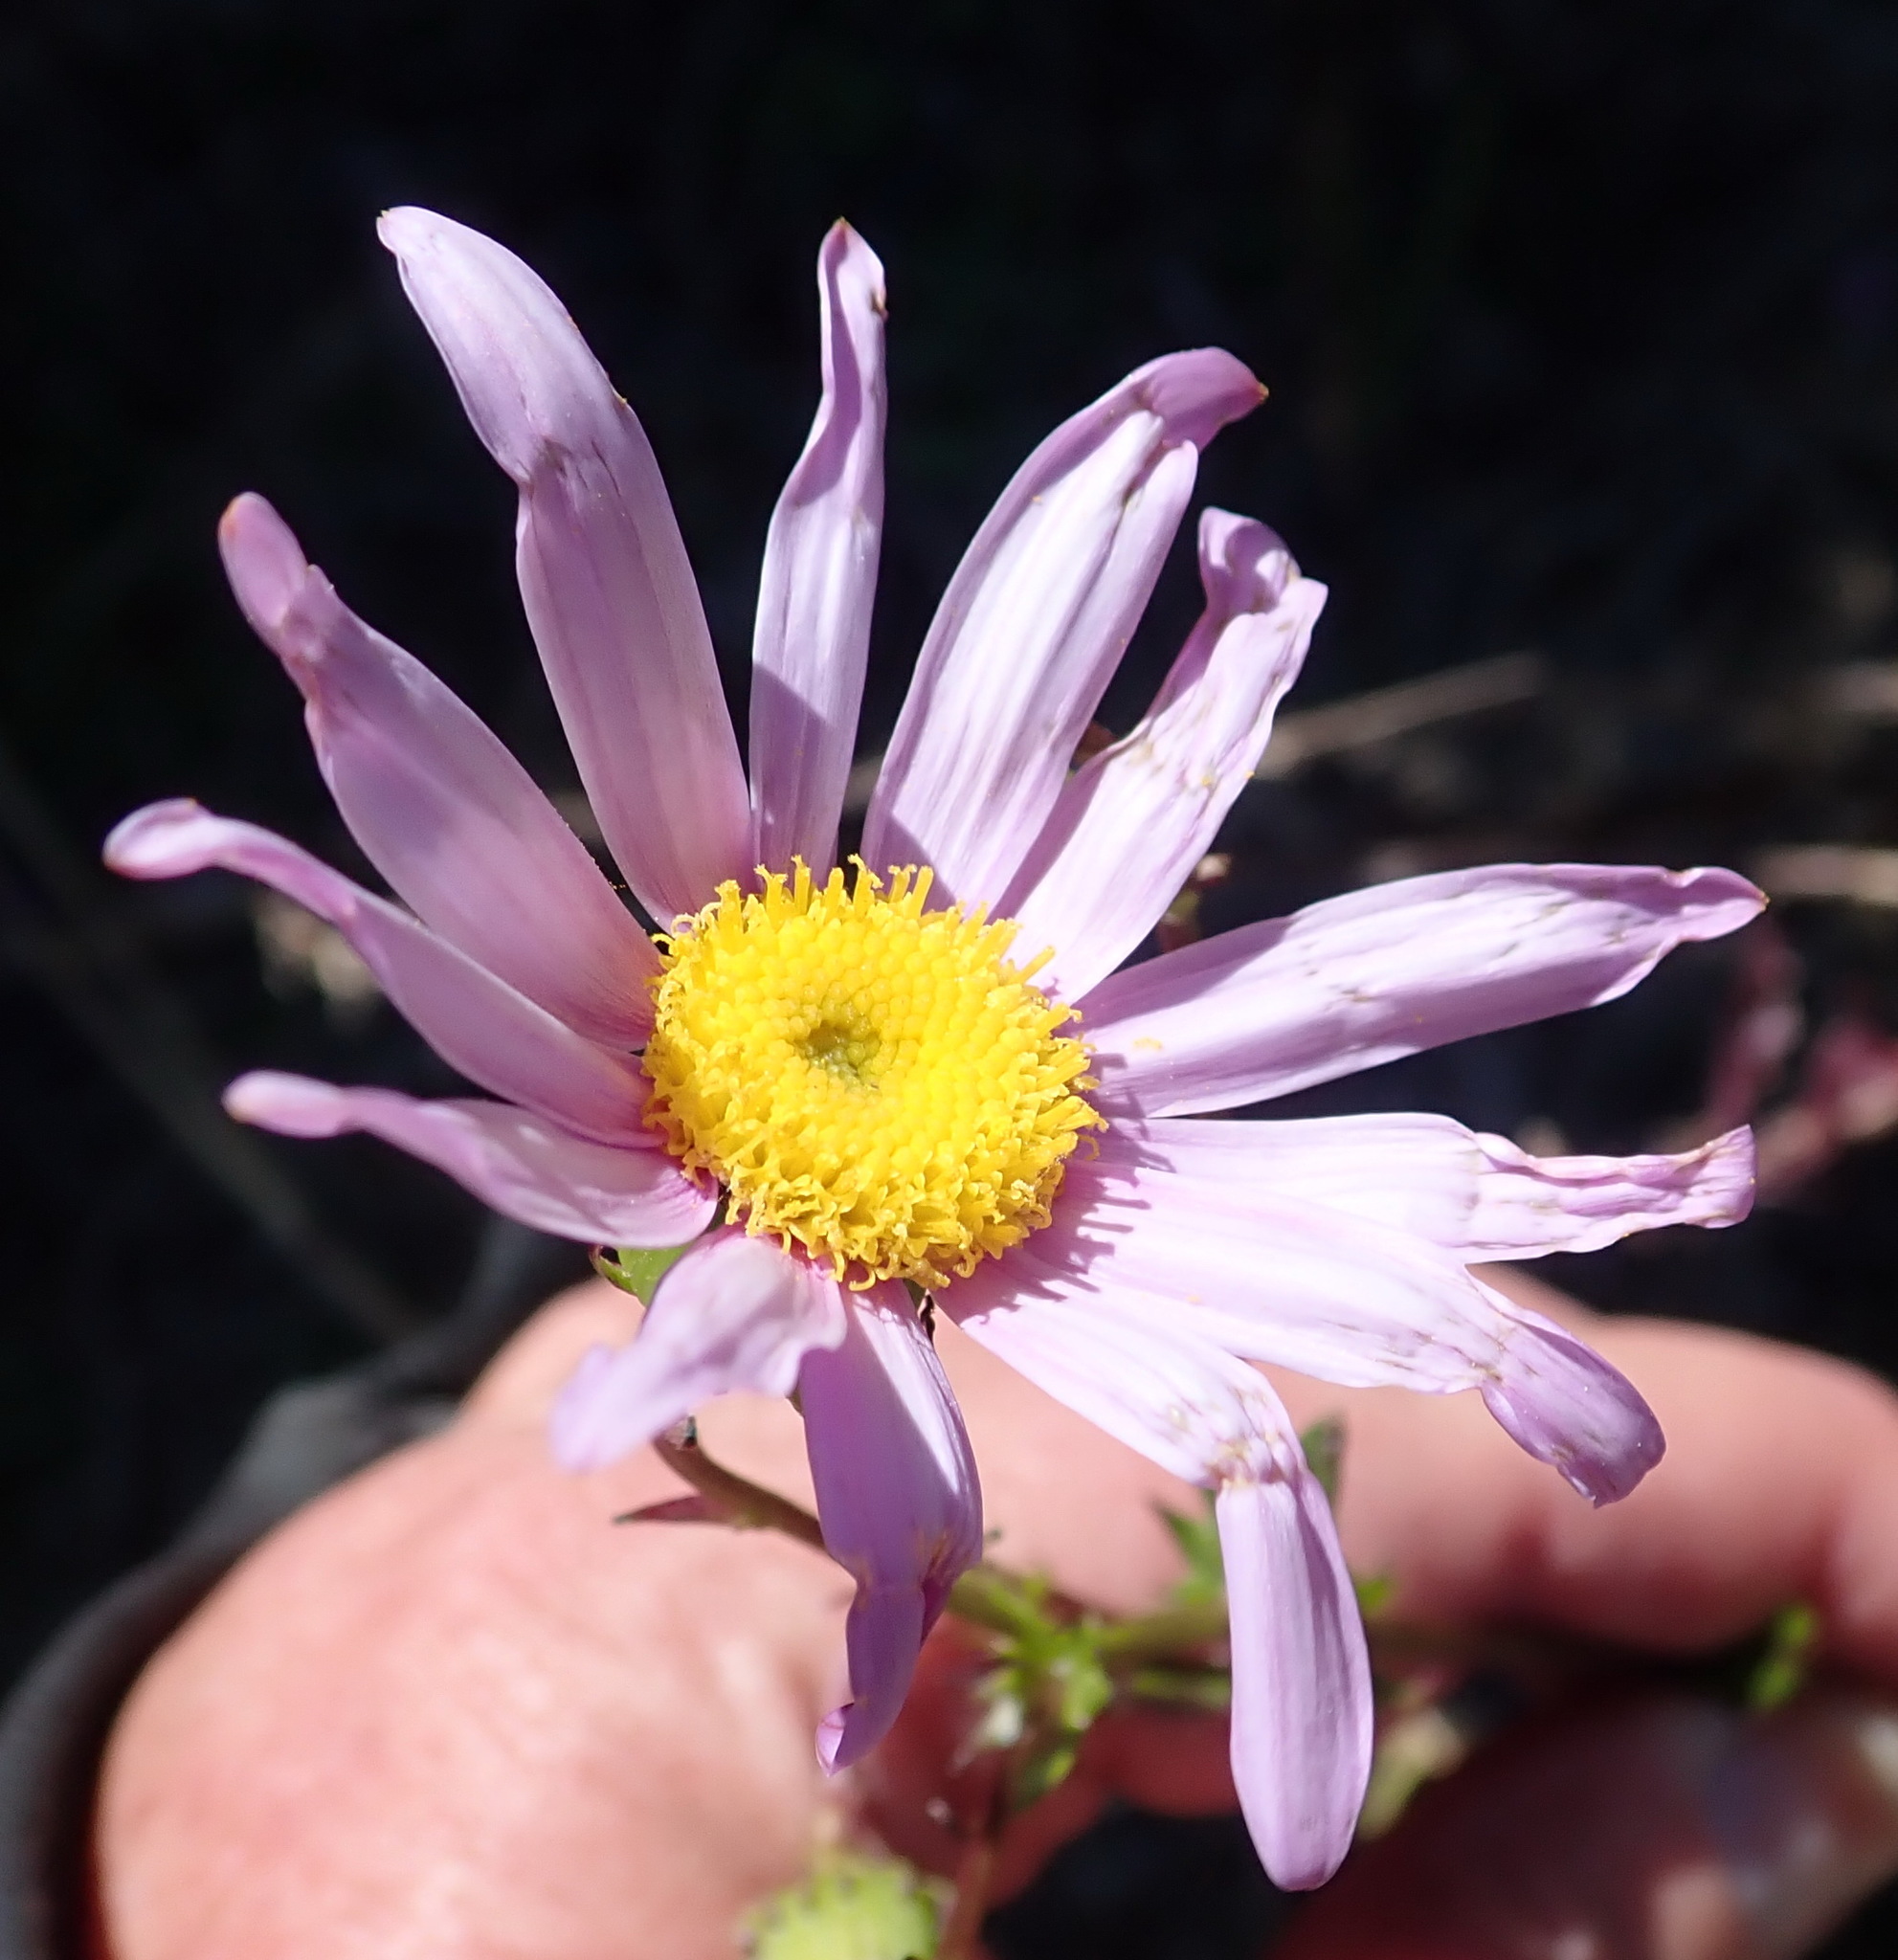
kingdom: Plantae
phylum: Tracheophyta
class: Magnoliopsida
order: Asterales
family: Asteraceae
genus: Senecio
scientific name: Senecio glastifolius
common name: Woad-leaved ragwort
